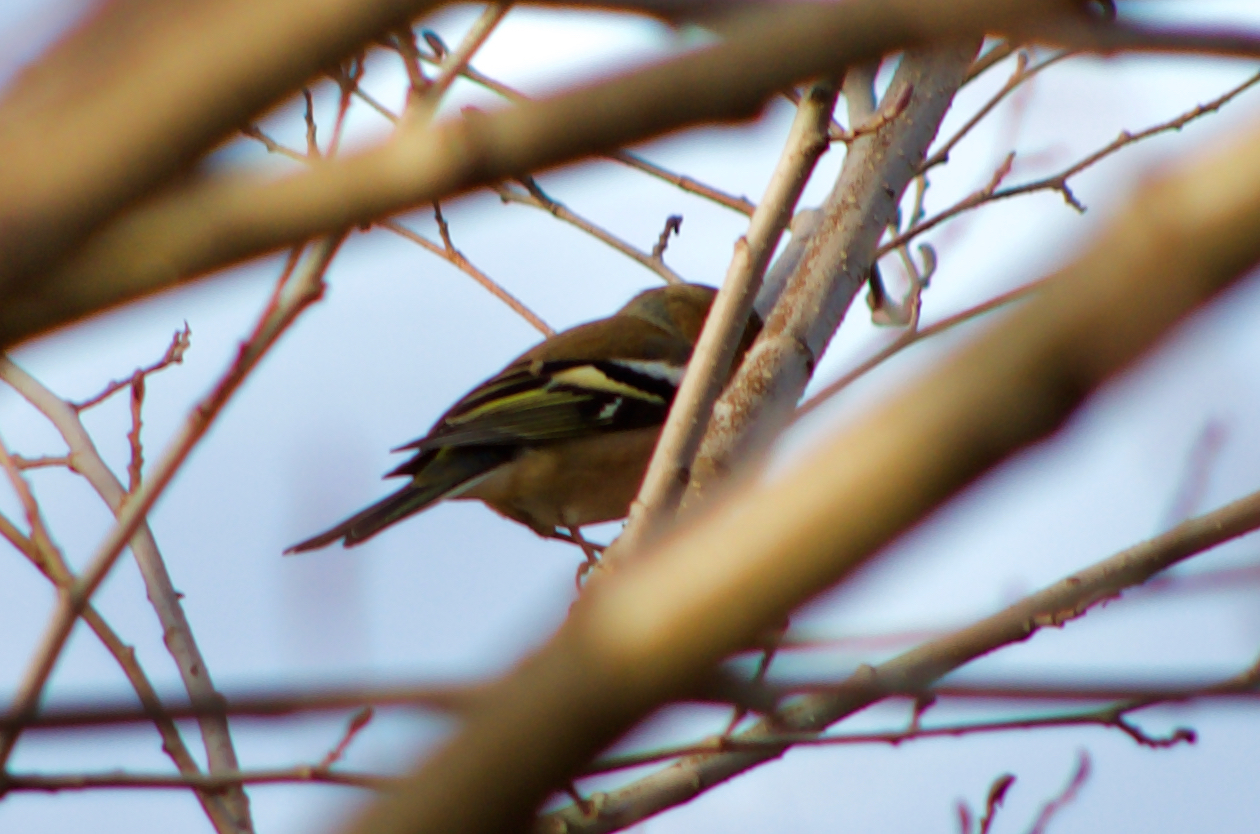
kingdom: Animalia
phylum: Chordata
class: Aves
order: Passeriformes
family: Fringillidae
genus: Fringilla
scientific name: Fringilla coelebs
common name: Common chaffinch
